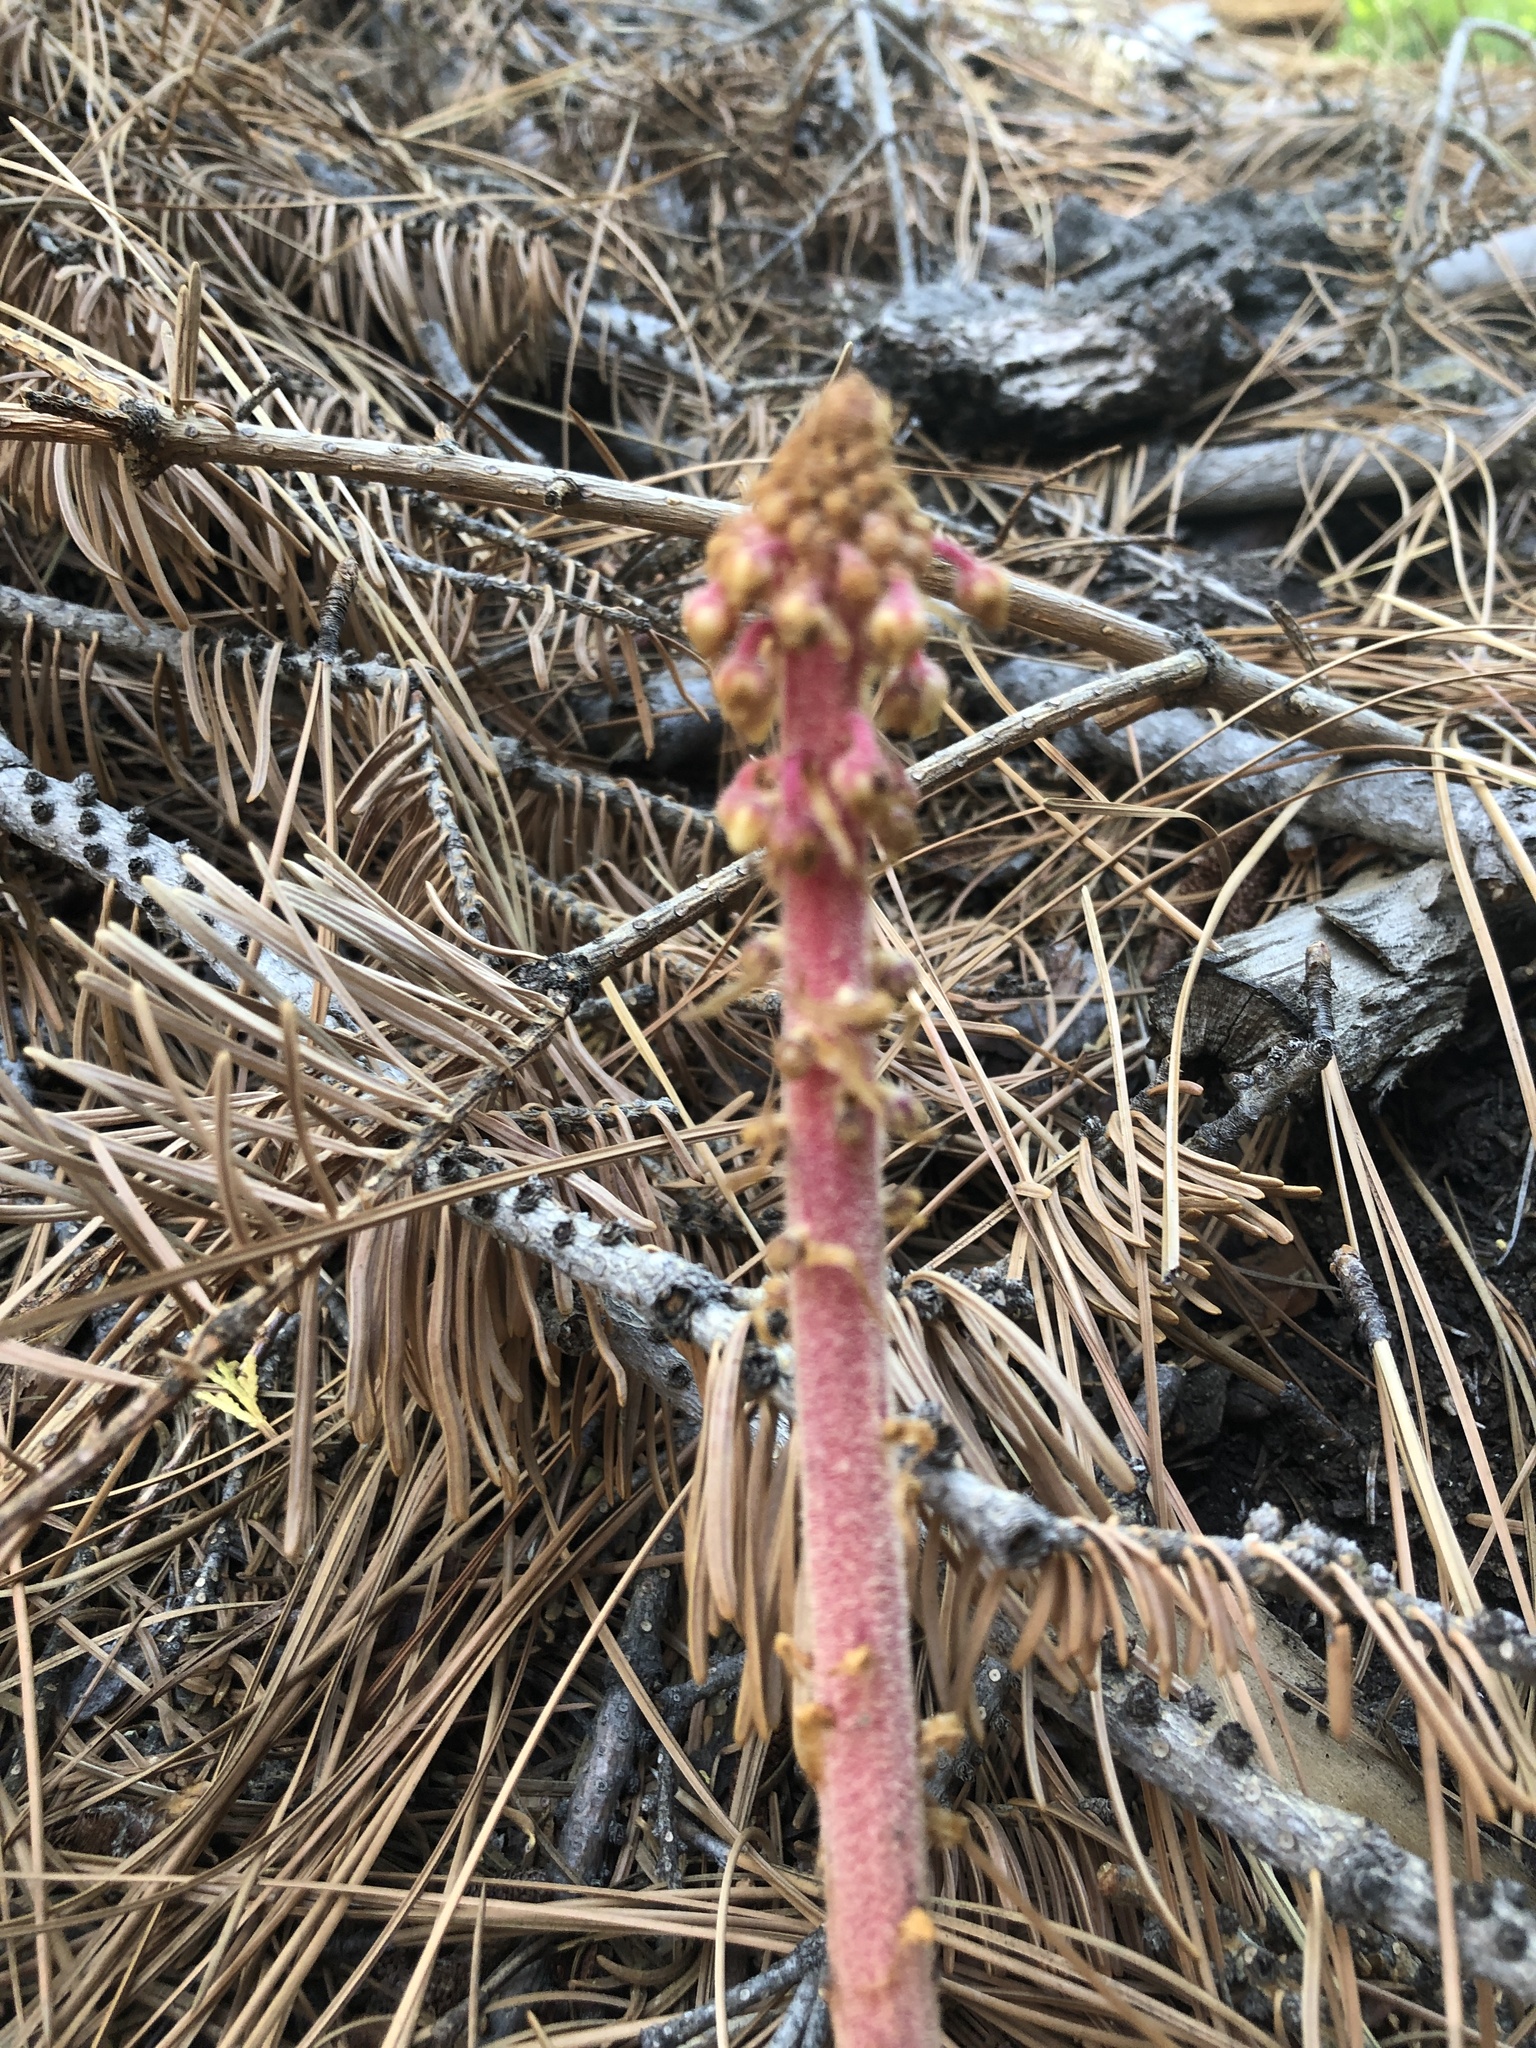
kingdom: Plantae
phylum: Tracheophyta
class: Magnoliopsida
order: Ericales
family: Ericaceae
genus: Pterospora
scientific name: Pterospora andromedea
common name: Giant bird's-nest
